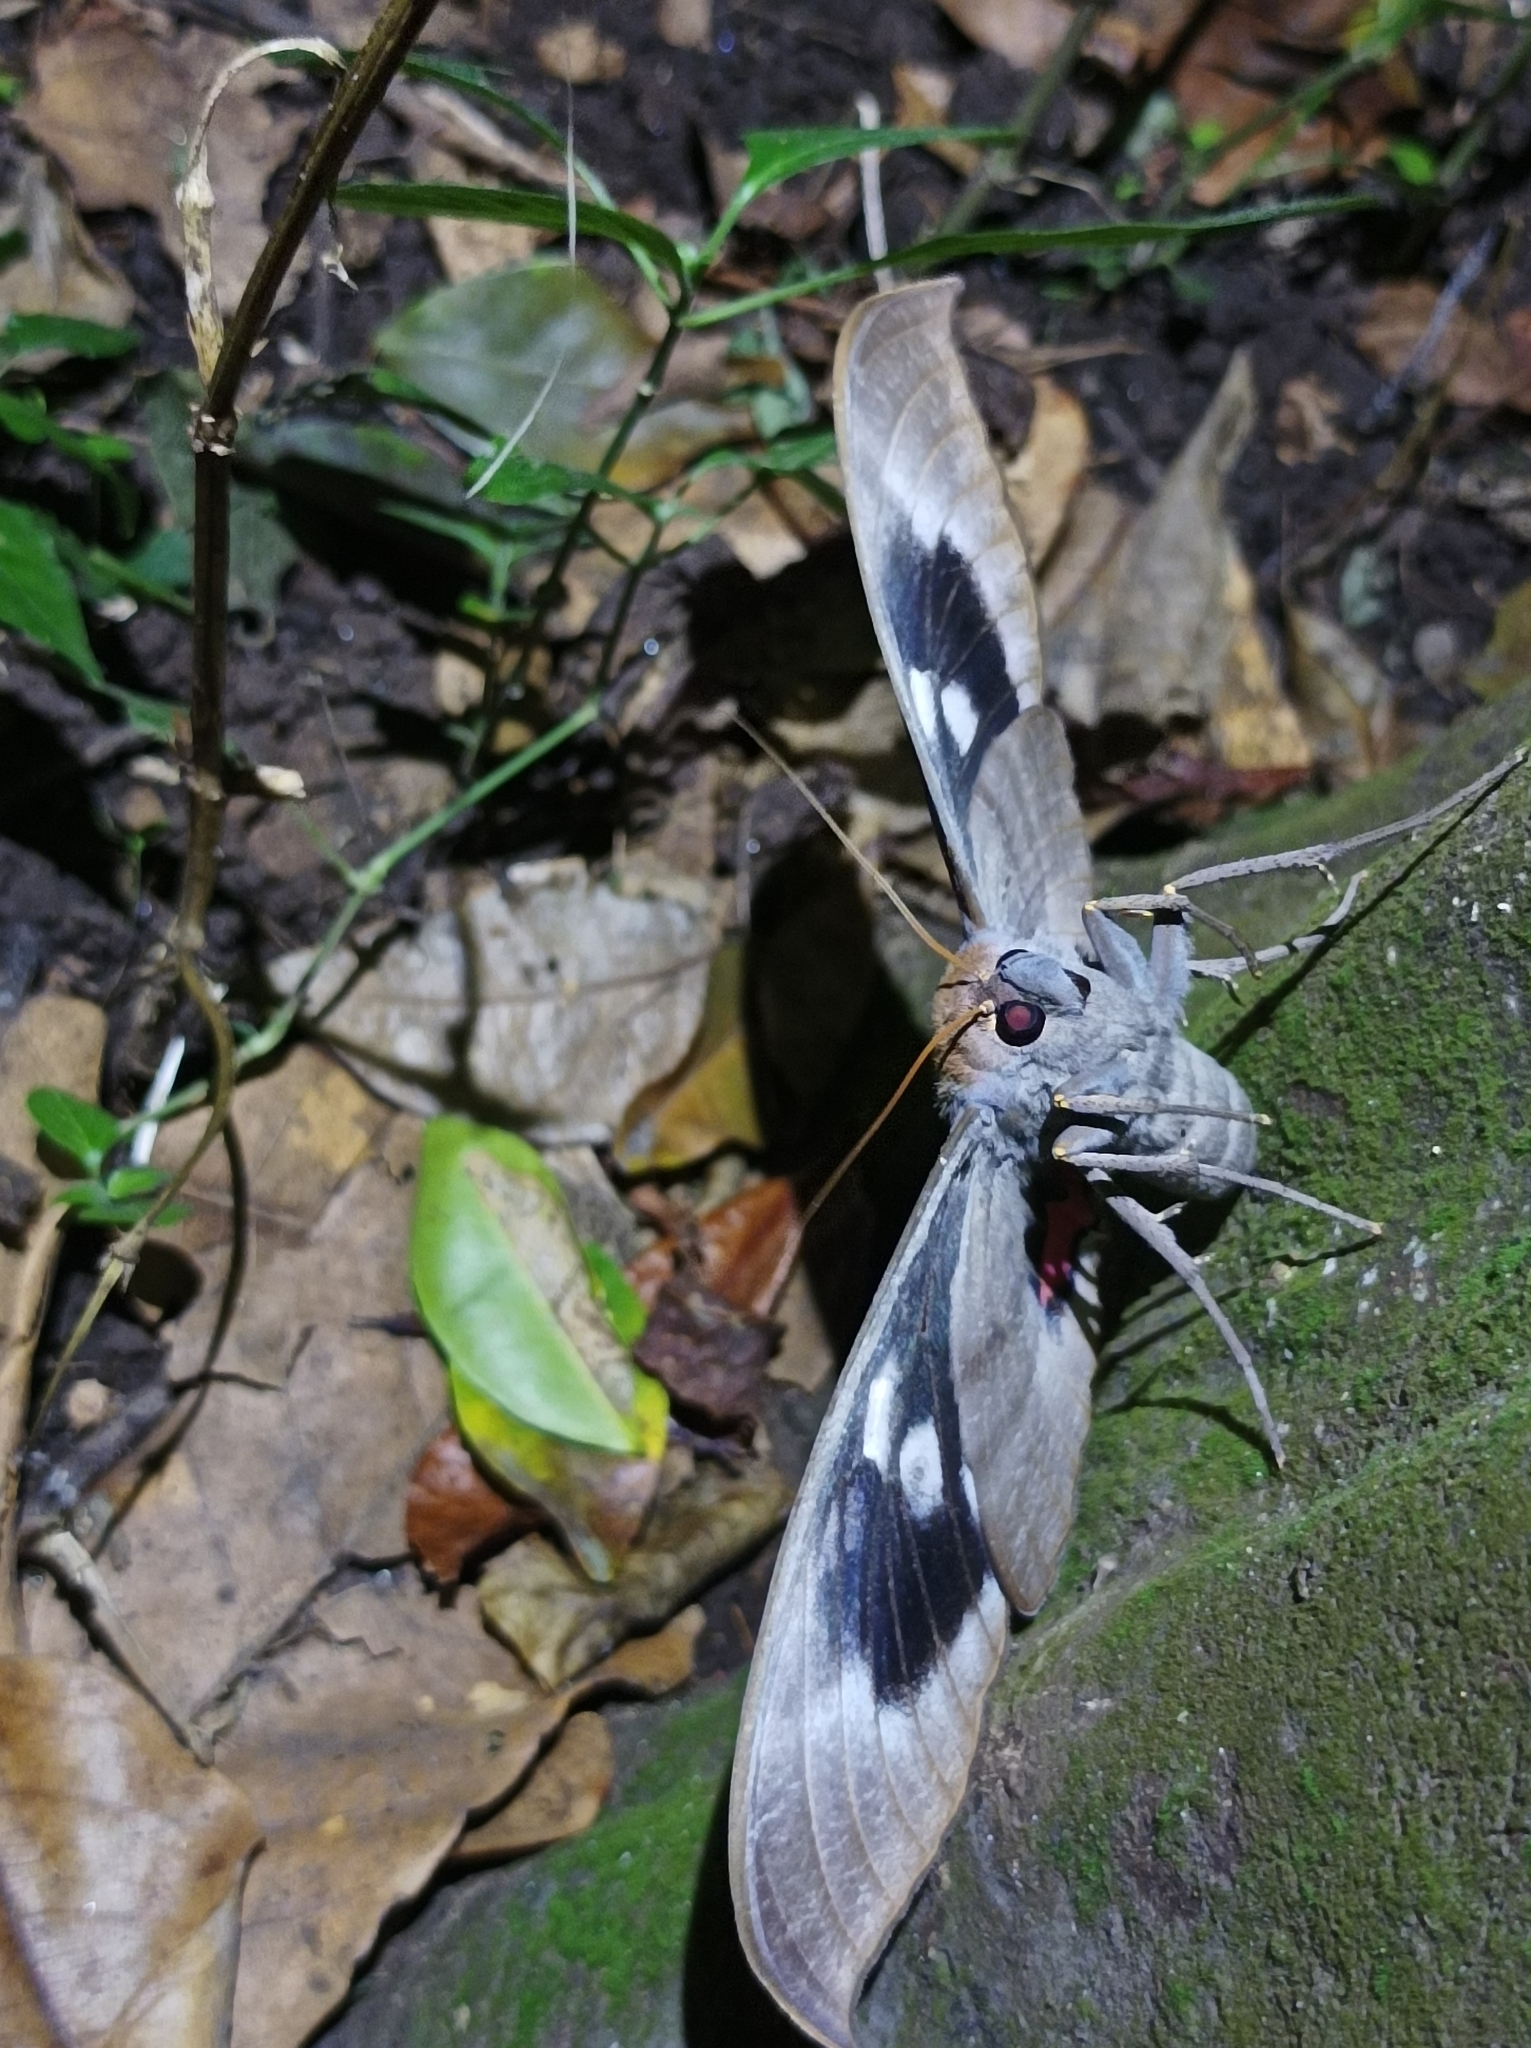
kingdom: Animalia
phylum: Arthropoda
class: Insecta
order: Lepidoptera
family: Erebidae
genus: Phyllodes
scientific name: Phyllodes imperialis
